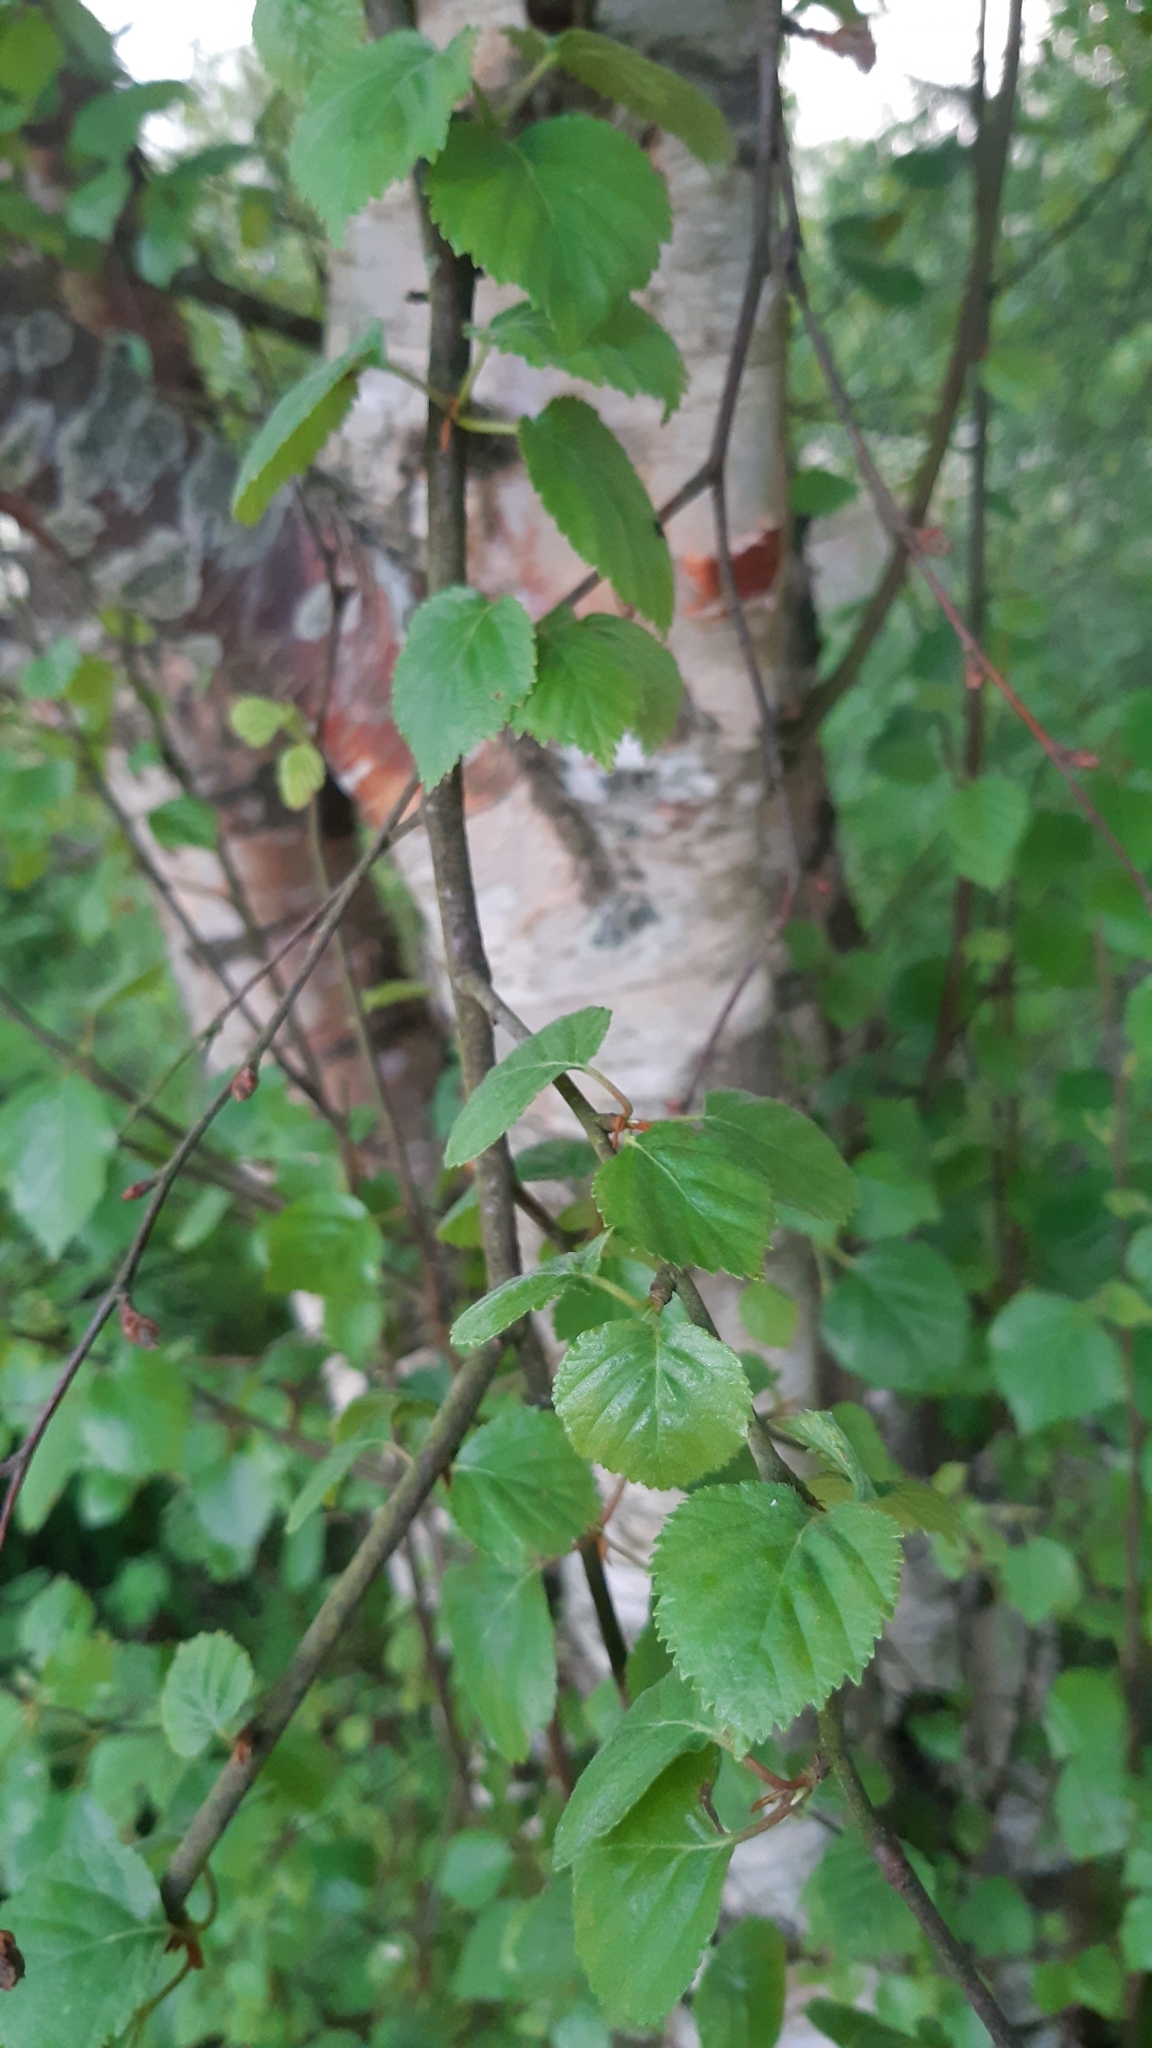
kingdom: Plantae
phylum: Tracheophyta
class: Magnoliopsida
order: Fagales
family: Betulaceae
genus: Betula
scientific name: Betula pubescens
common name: Downy birch
